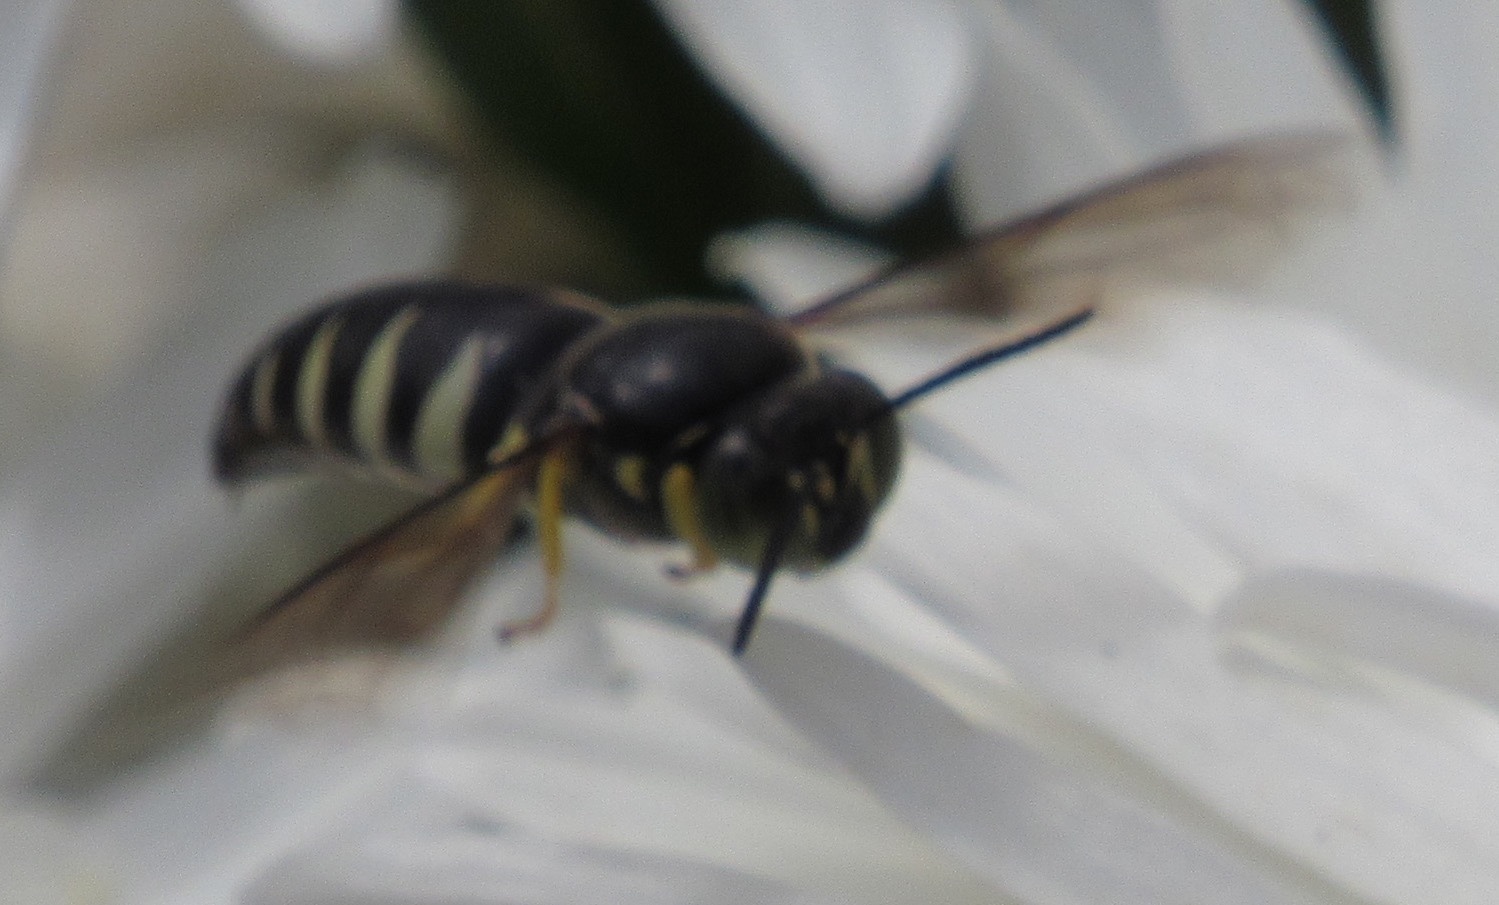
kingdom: Animalia
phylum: Arthropoda
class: Insecta
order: Hymenoptera
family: Crabronidae
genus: Bicyrtes
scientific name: Bicyrtes quadrifasciatus
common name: Four-banded stink bug hunter wasp
